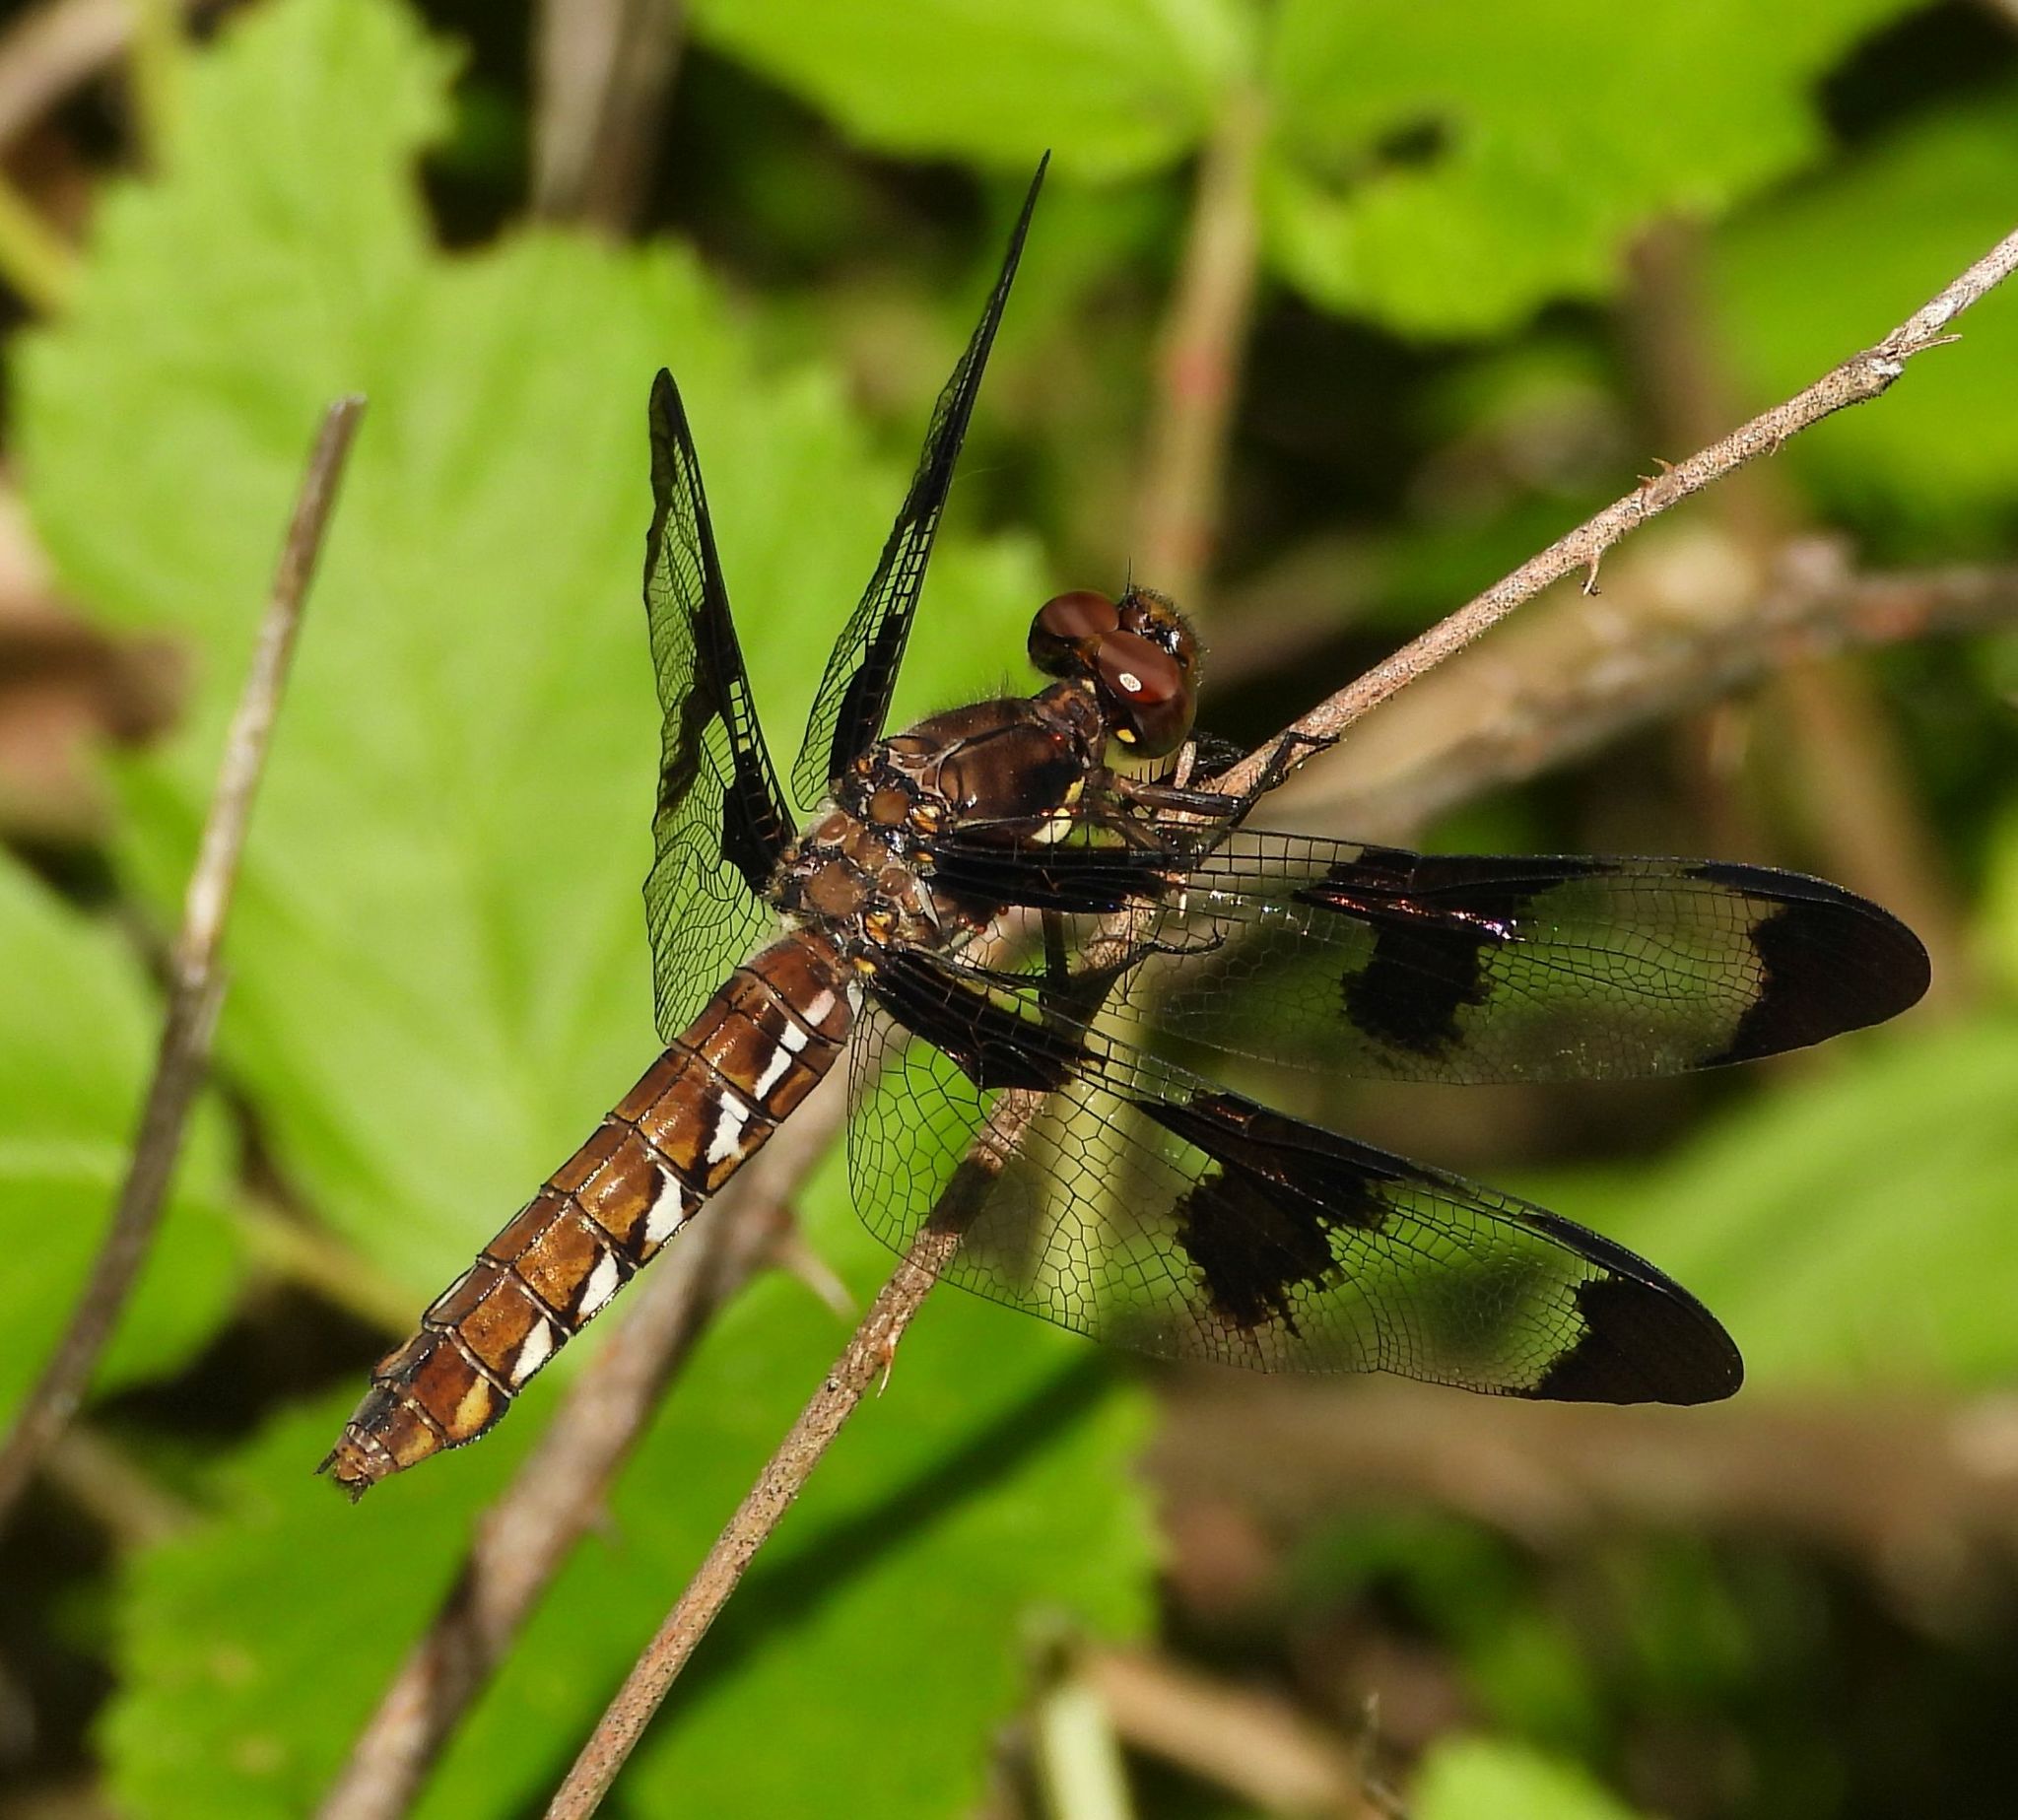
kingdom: Animalia
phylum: Arthropoda
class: Insecta
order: Odonata
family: Libellulidae
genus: Plathemis
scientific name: Plathemis lydia
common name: Common whitetail
